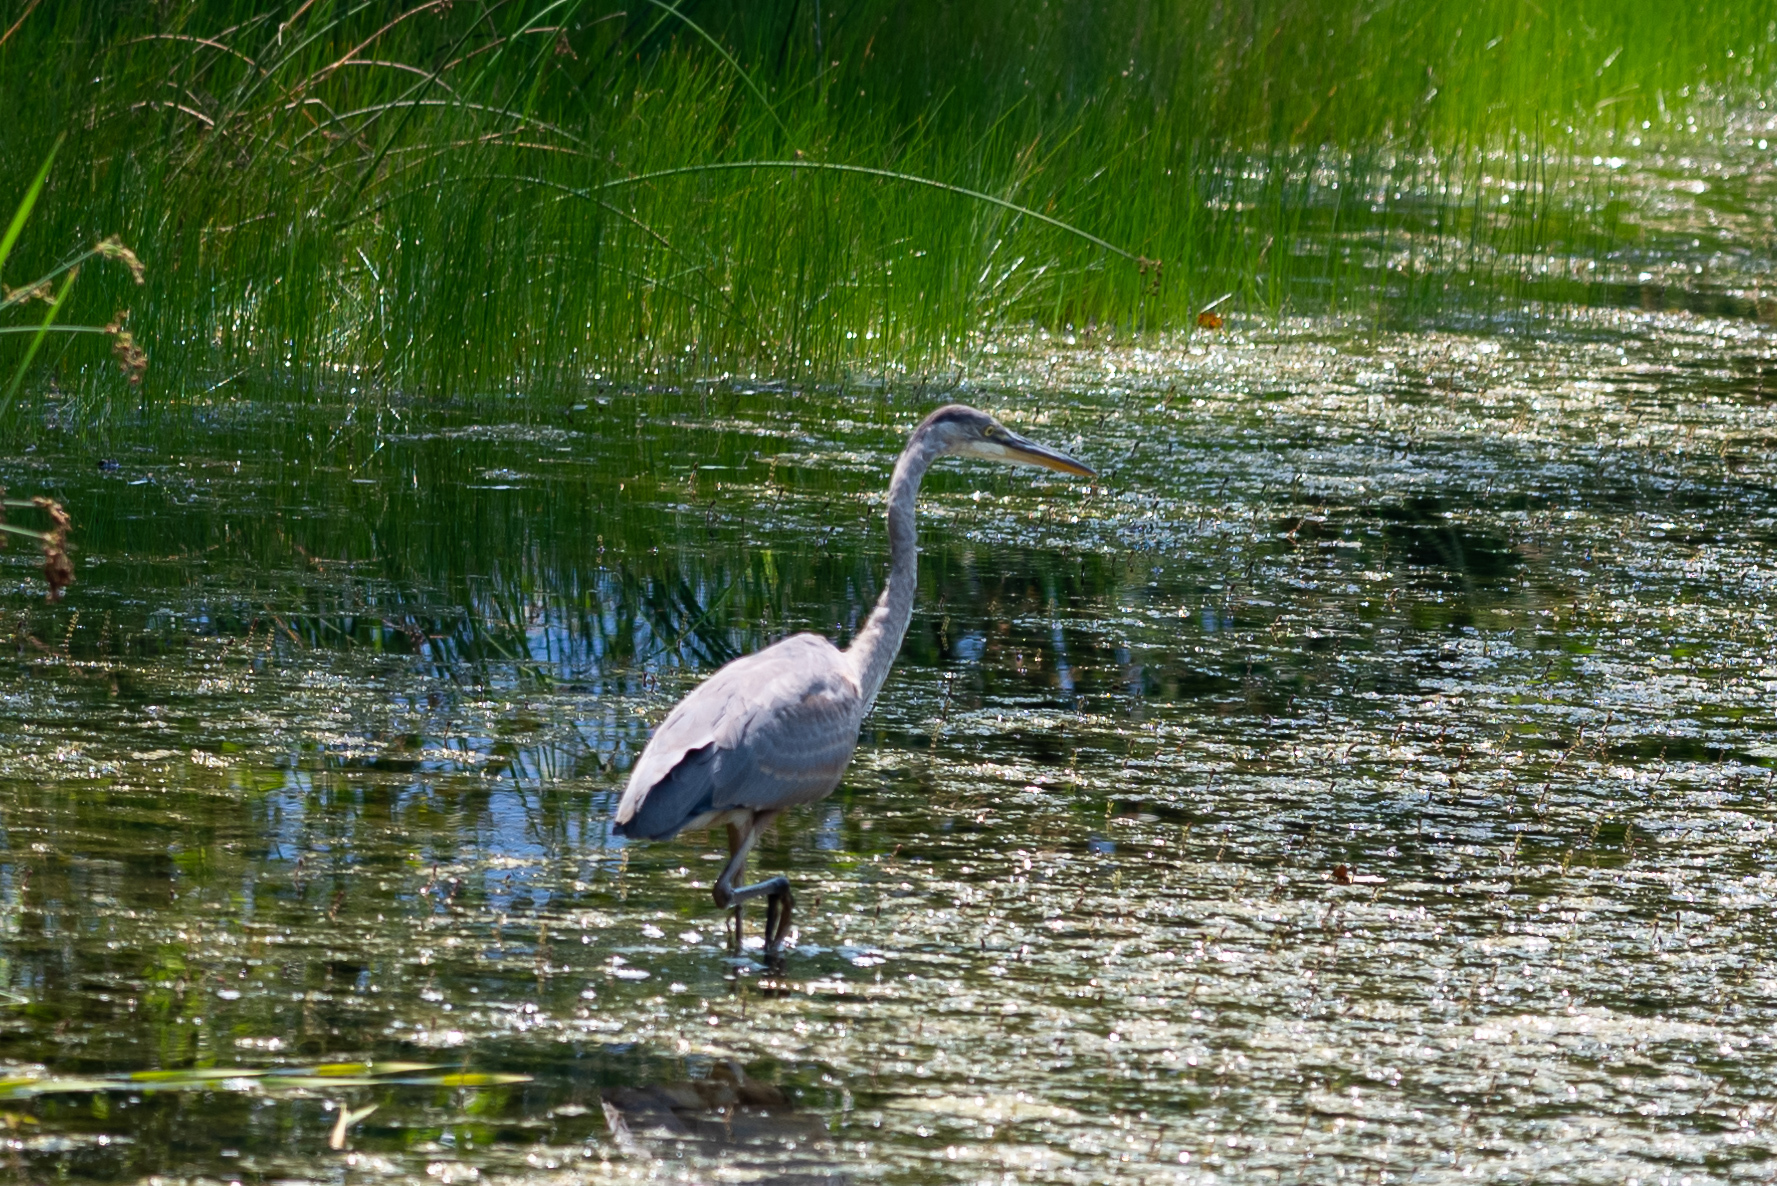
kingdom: Animalia
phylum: Chordata
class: Aves
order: Pelecaniformes
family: Ardeidae
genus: Ardea
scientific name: Ardea herodias
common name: Great blue heron
